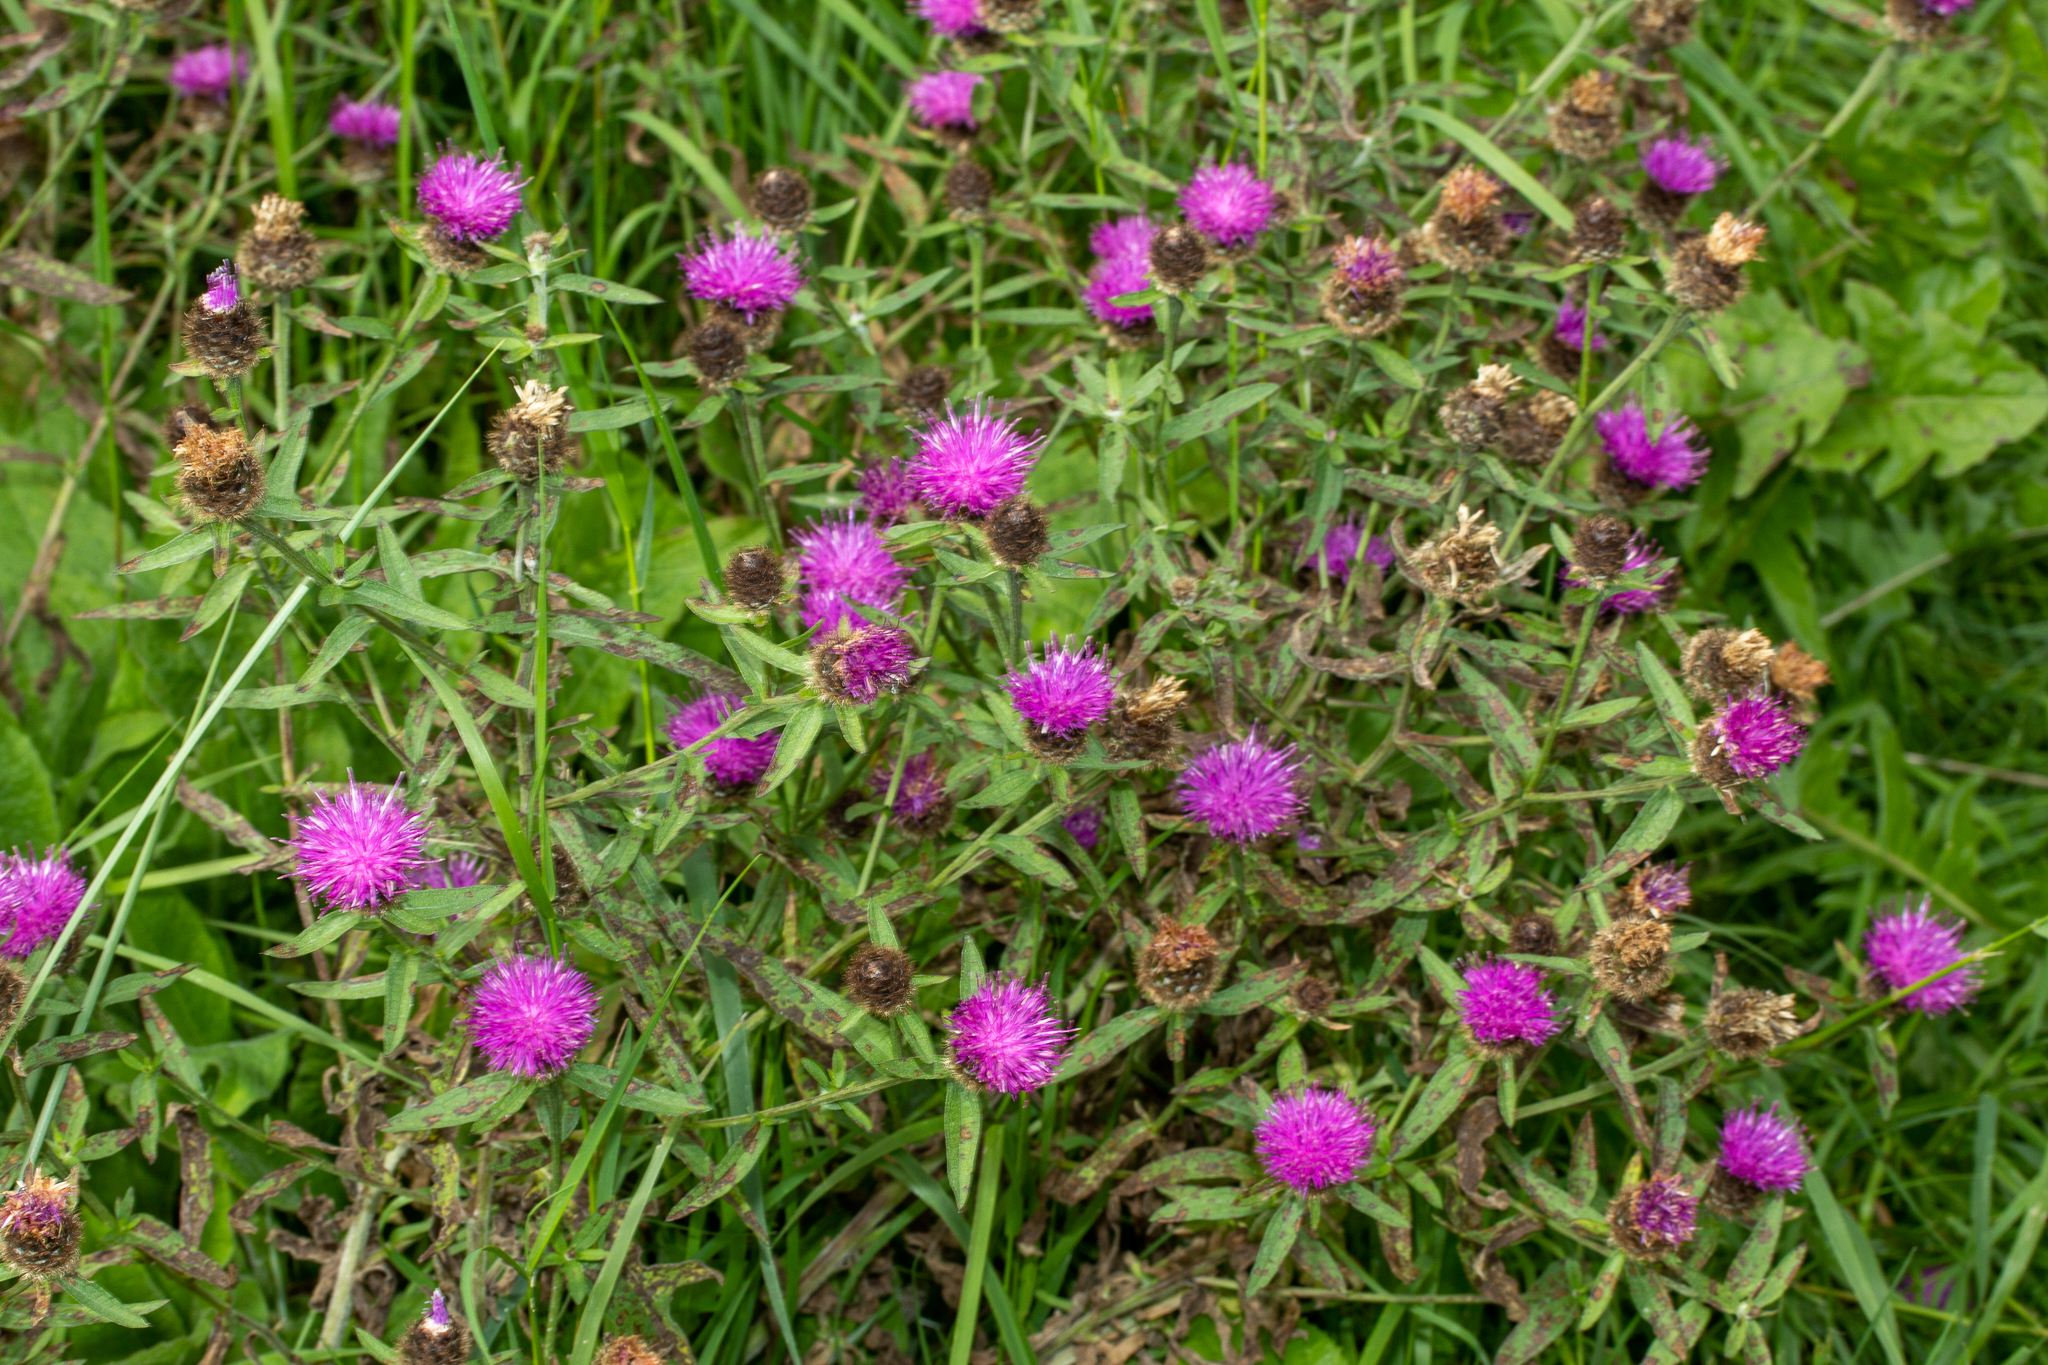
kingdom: Plantae
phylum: Tracheophyta
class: Magnoliopsida
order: Asterales
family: Asteraceae
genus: Centaurea
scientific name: Centaurea nigra
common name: Lesser knapweed
